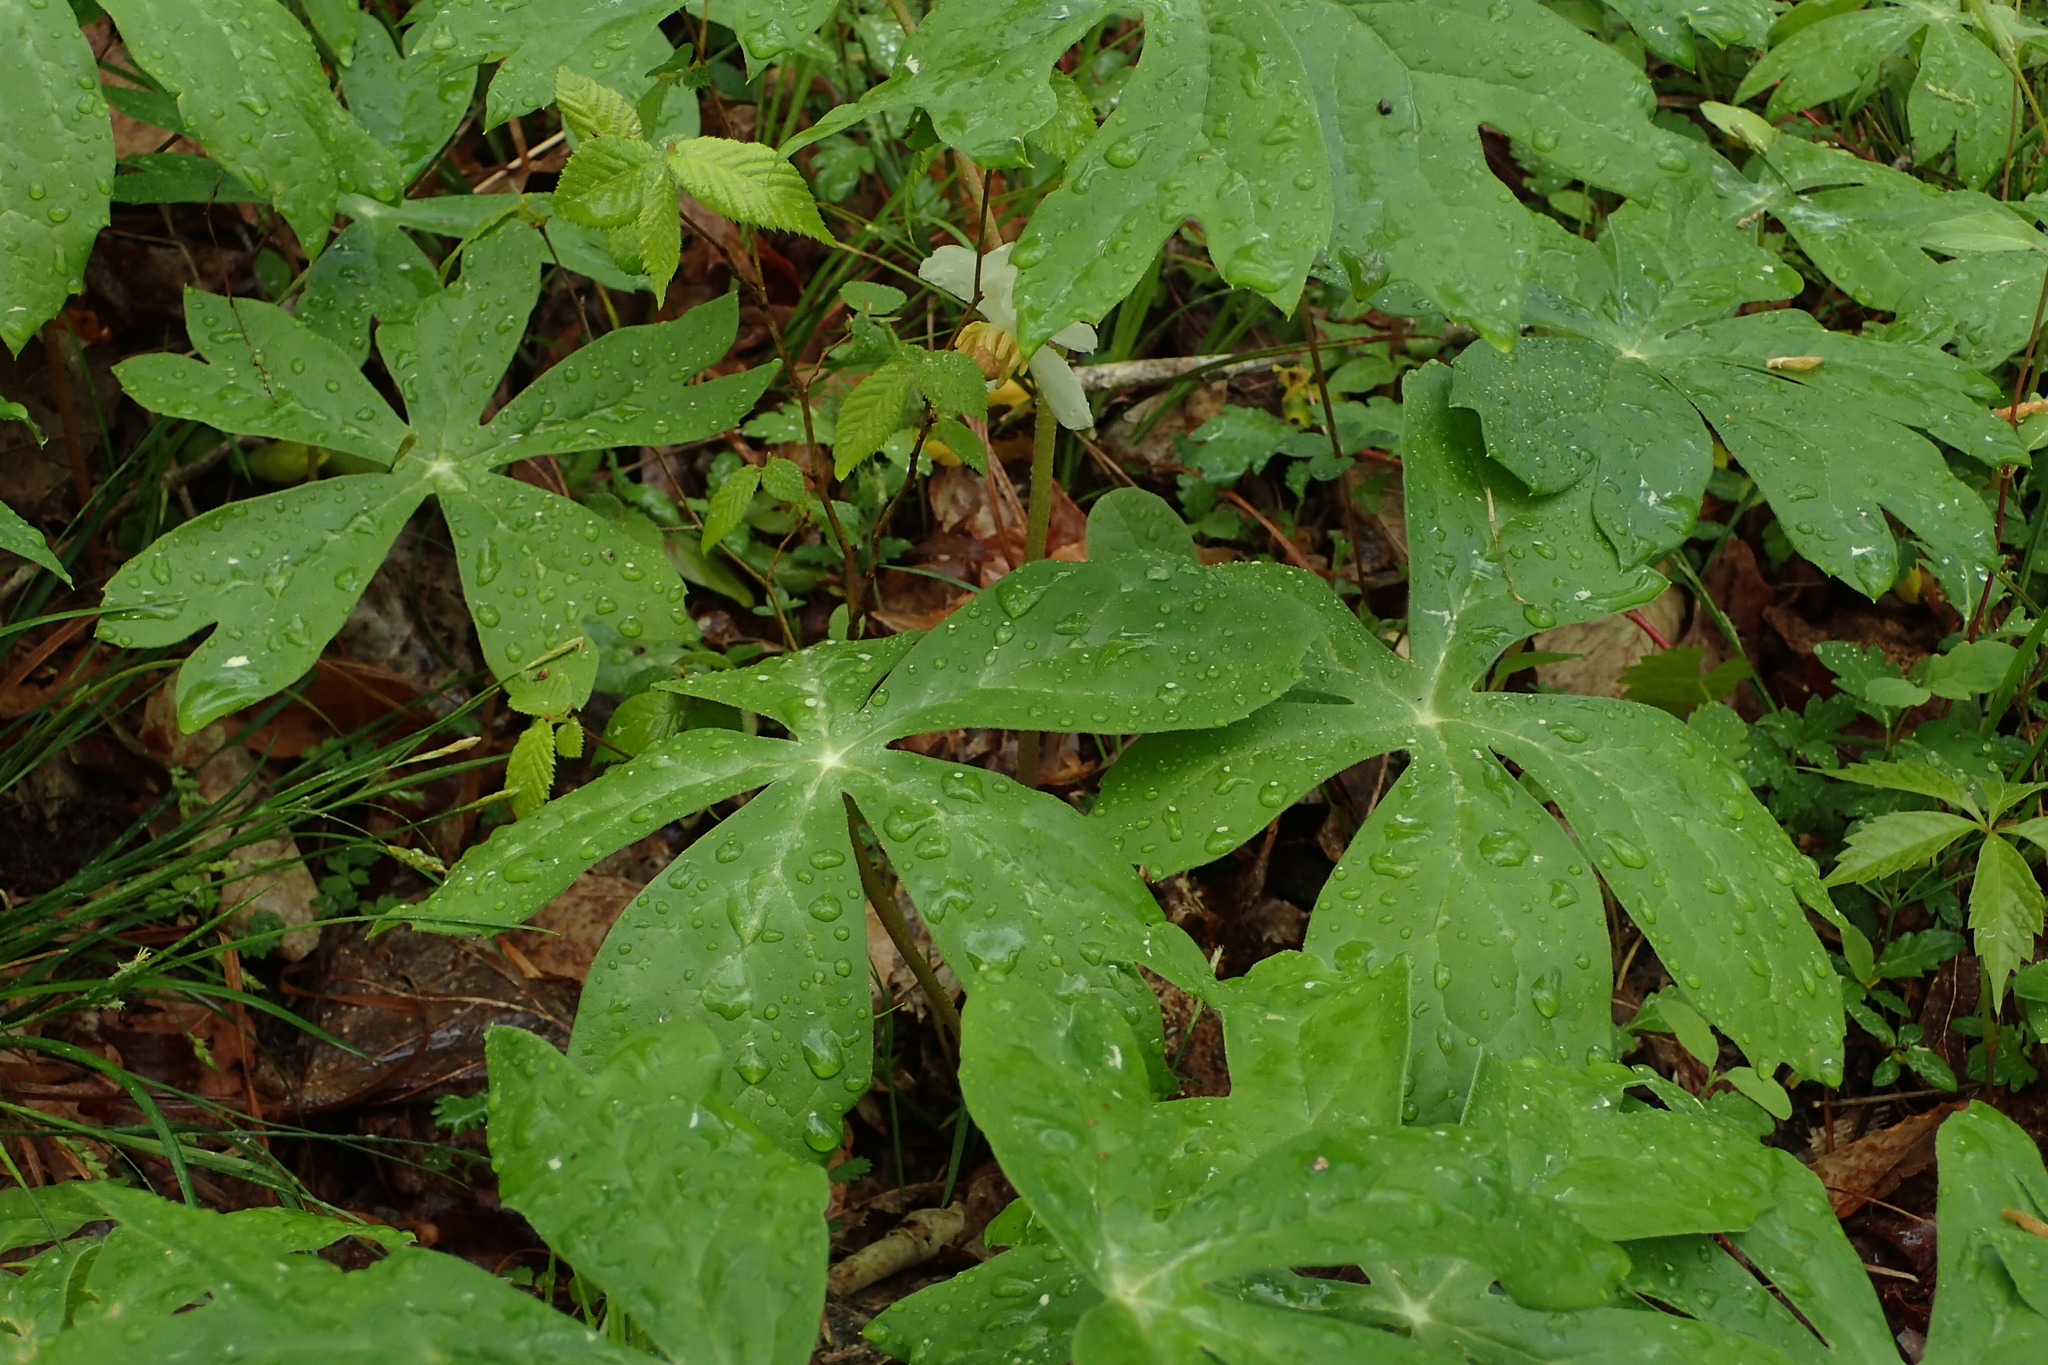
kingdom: Plantae
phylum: Tracheophyta
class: Magnoliopsida
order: Ranunculales
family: Berberidaceae
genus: Podophyllum
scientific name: Podophyllum peltatum
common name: Wild mandrake
